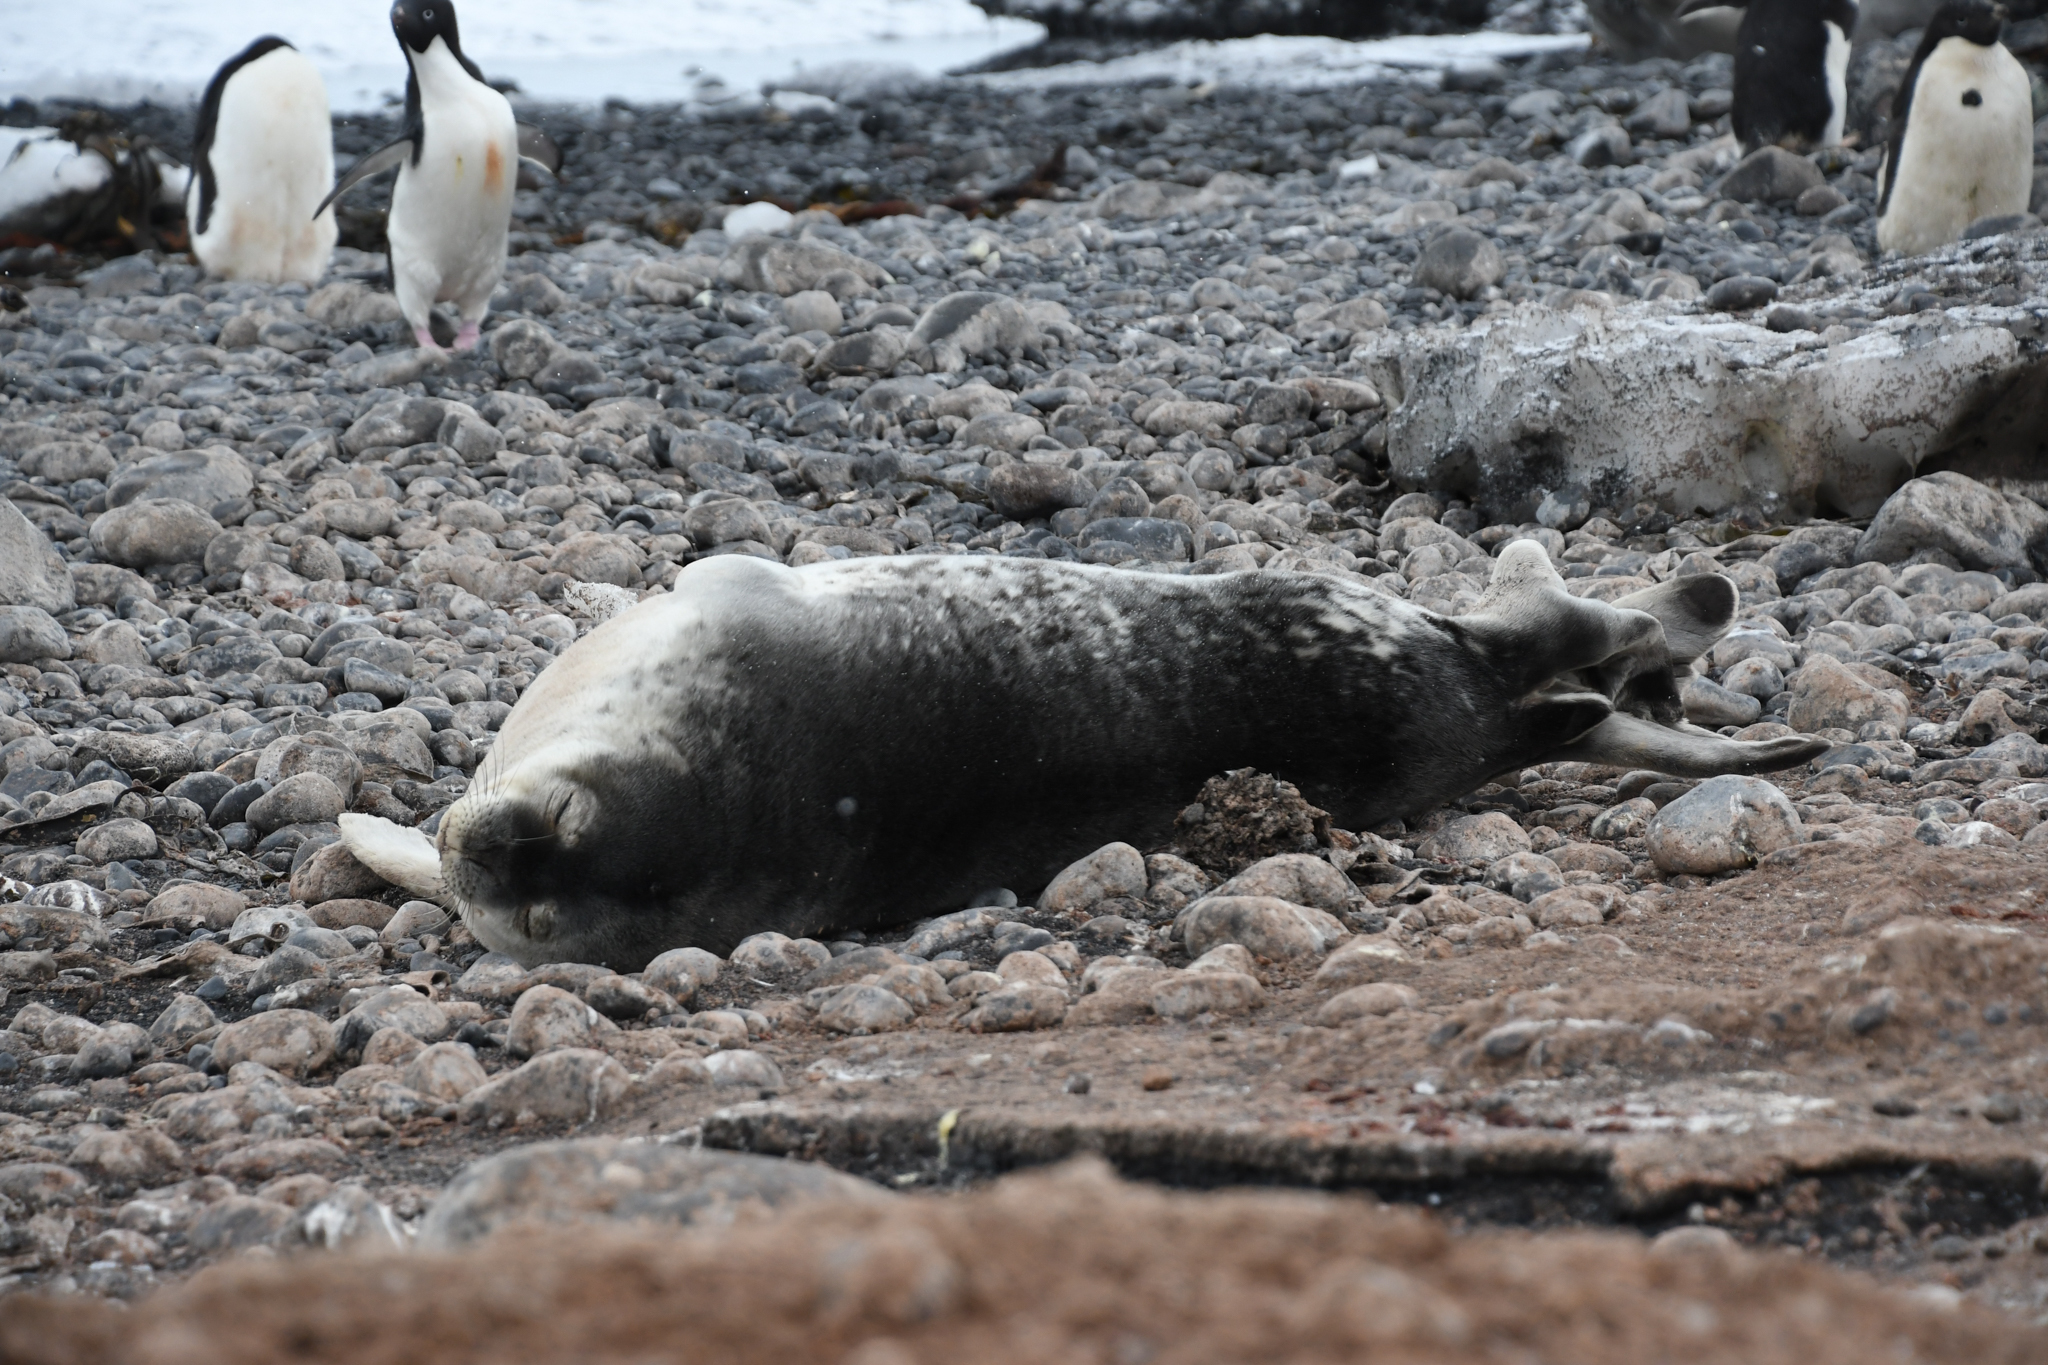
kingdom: Animalia
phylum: Chordata
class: Mammalia
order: Carnivora
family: Phocidae
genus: Leptonychotes
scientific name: Leptonychotes weddellii
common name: Weddell seal
